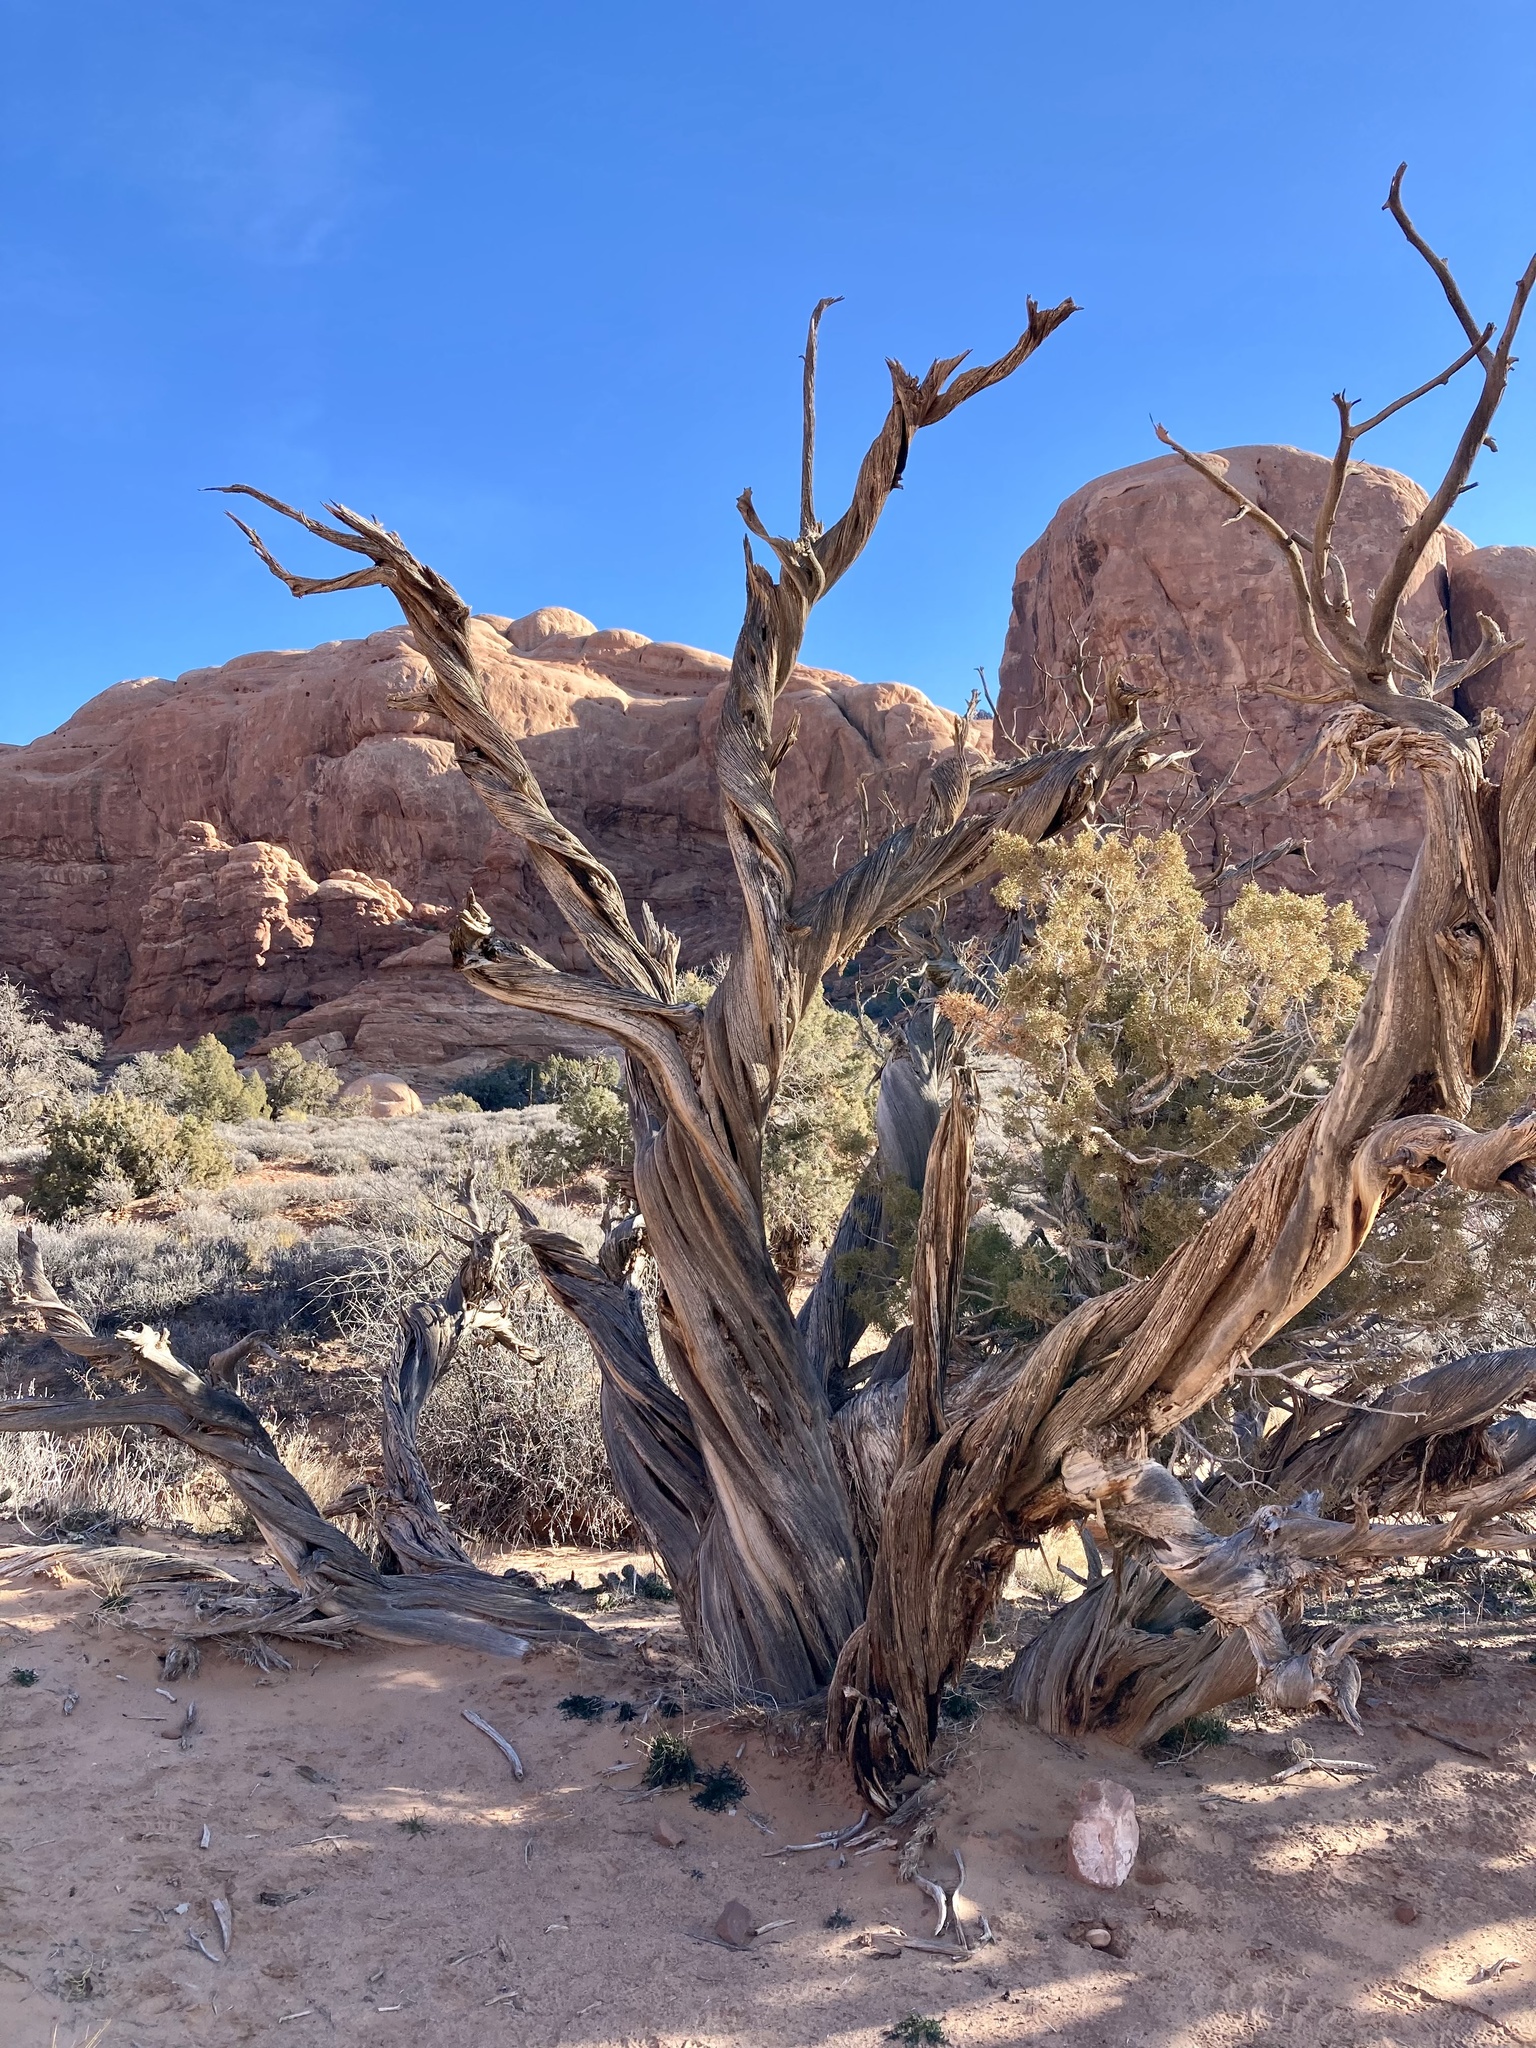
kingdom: Plantae
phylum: Tracheophyta
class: Pinopsida
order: Pinales
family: Cupressaceae
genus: Juniperus
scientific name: Juniperus osteosperma
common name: Utah juniper
